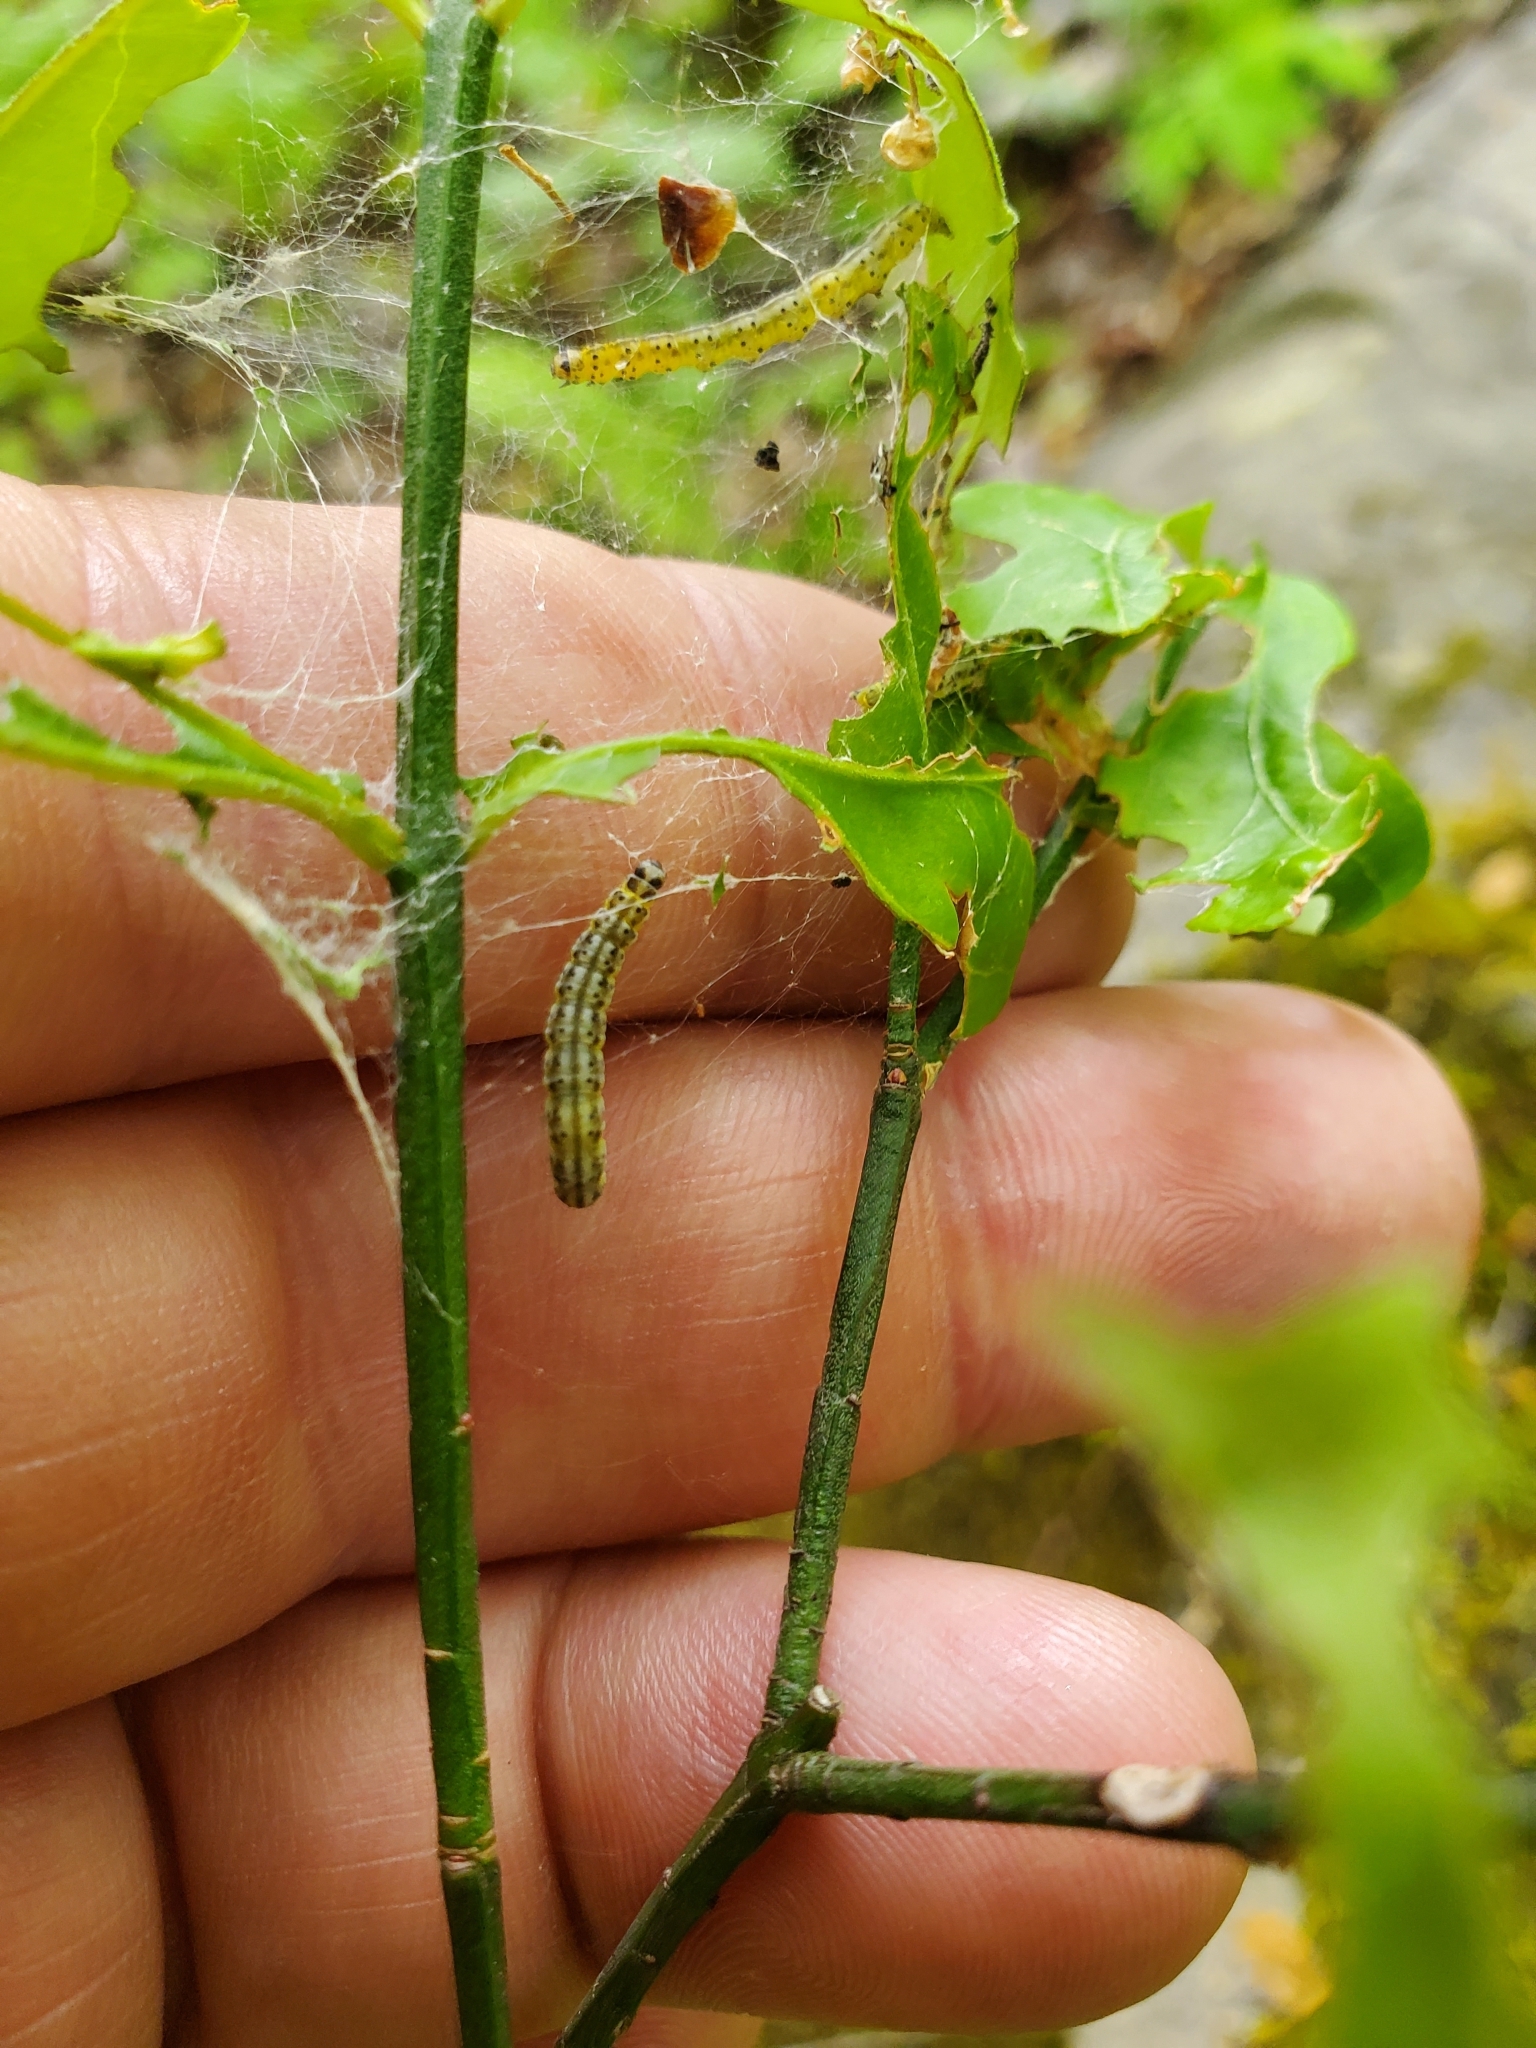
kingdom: Animalia
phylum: Arthropoda
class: Insecta
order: Lepidoptera
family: Yponomeutidae
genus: Yponomeuta
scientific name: Yponomeuta multipunctella
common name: American ermine moth
